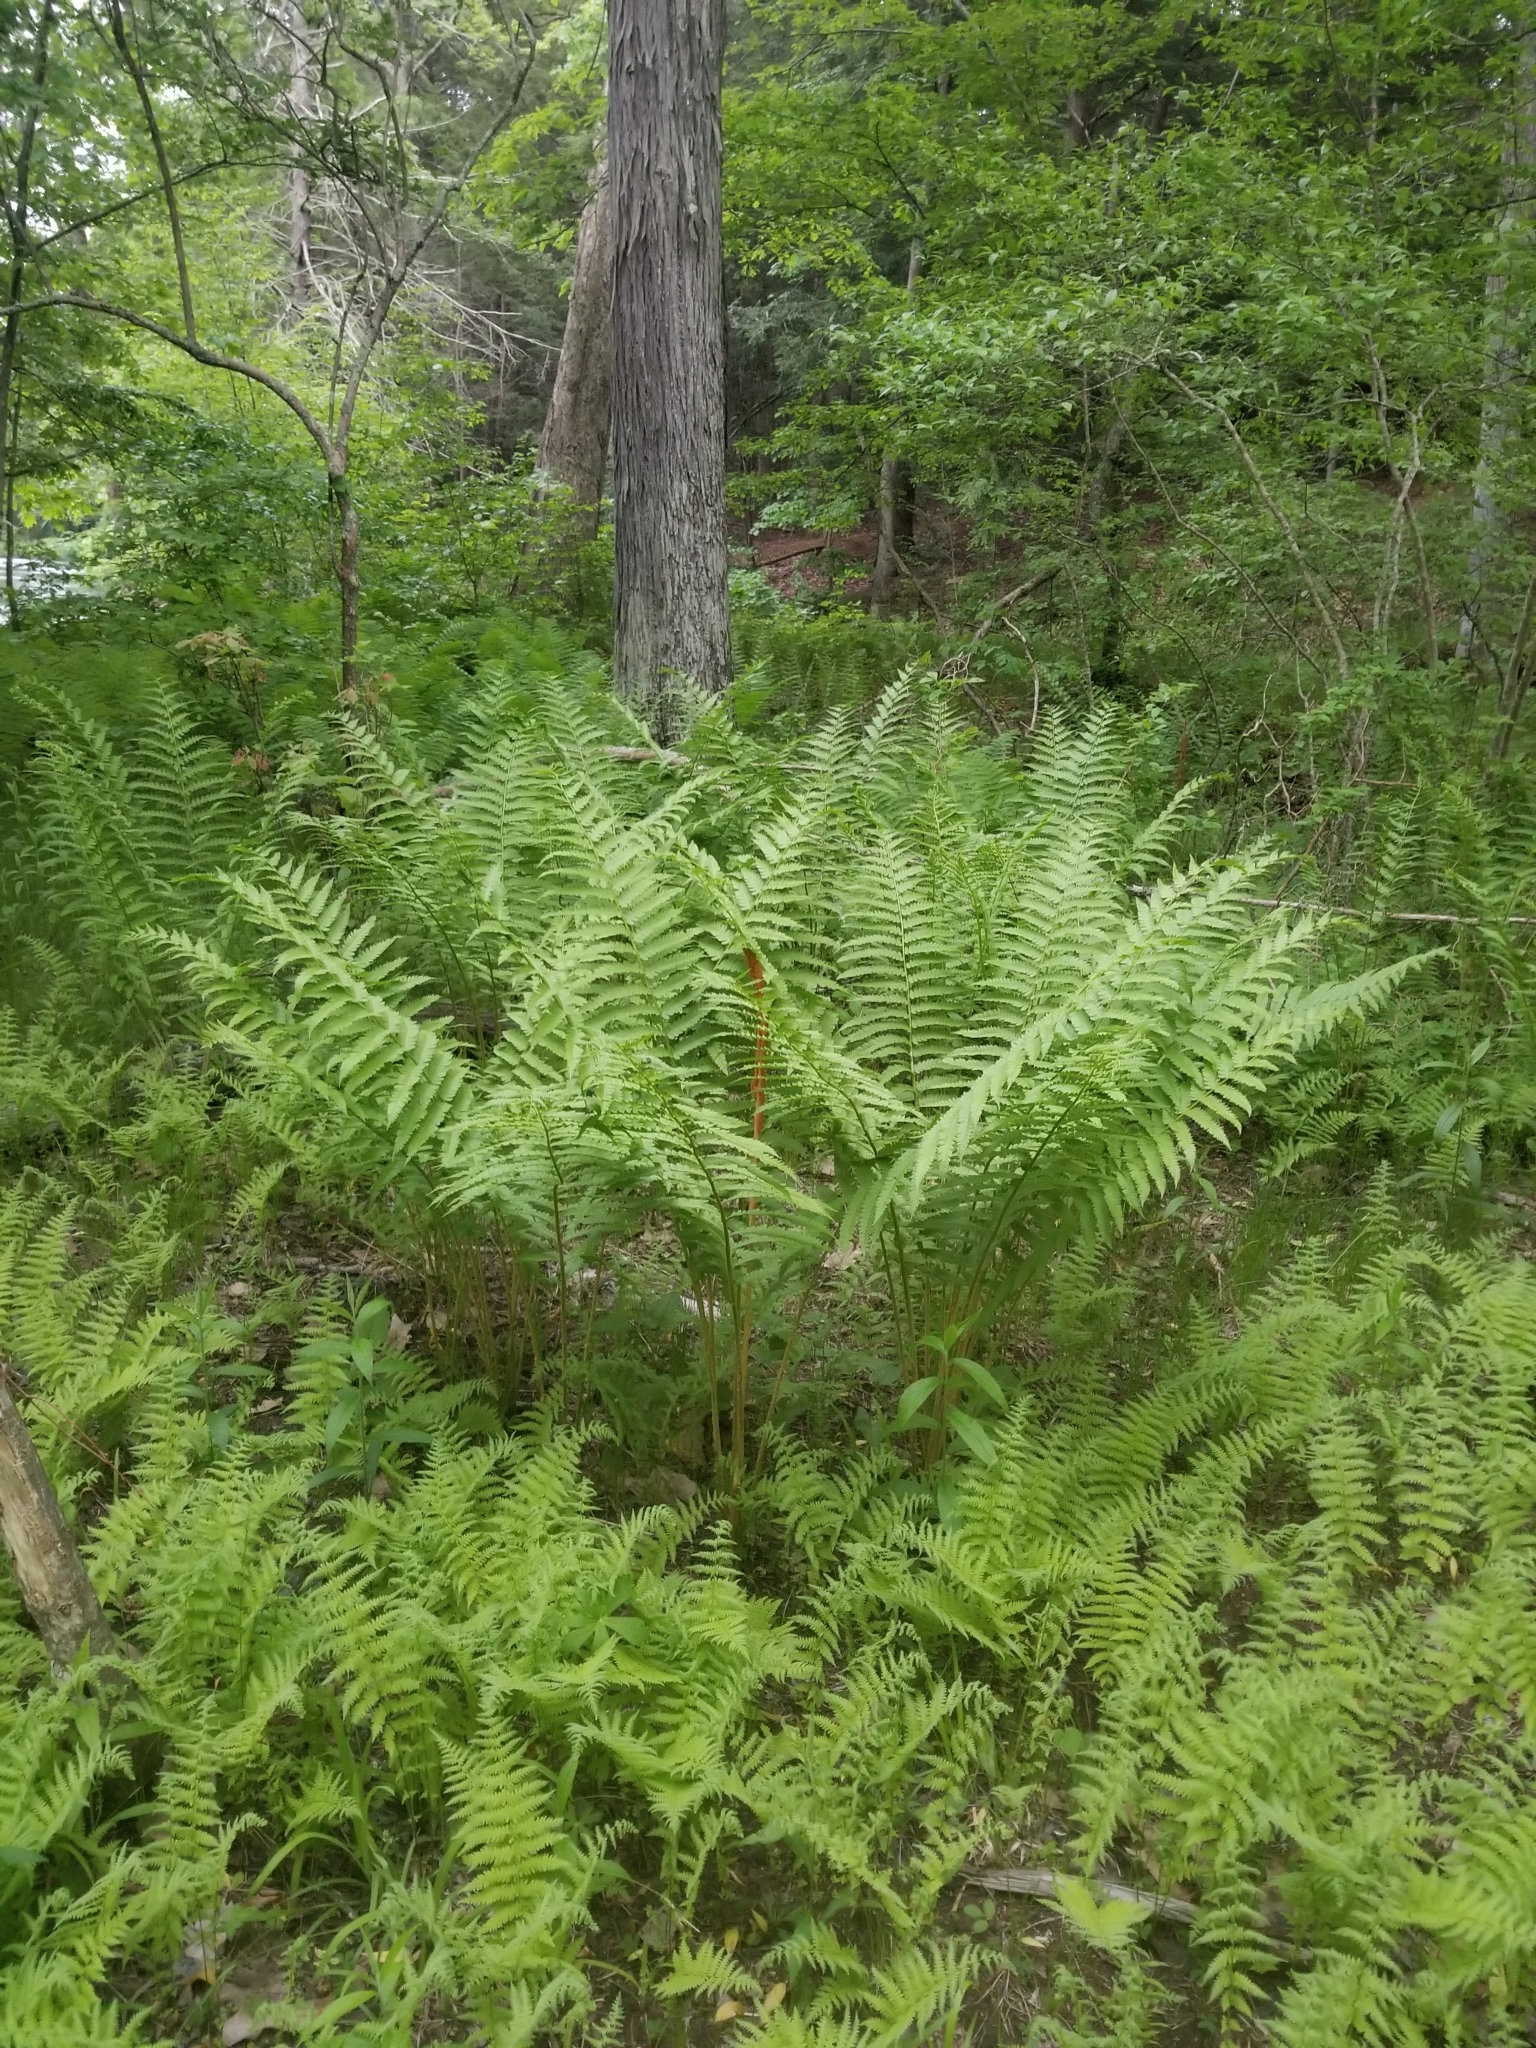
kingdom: Plantae
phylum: Tracheophyta
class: Polypodiopsida
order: Osmundales
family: Osmundaceae
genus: Osmundastrum
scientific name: Osmundastrum cinnamomeum
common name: Cinnamon fern
